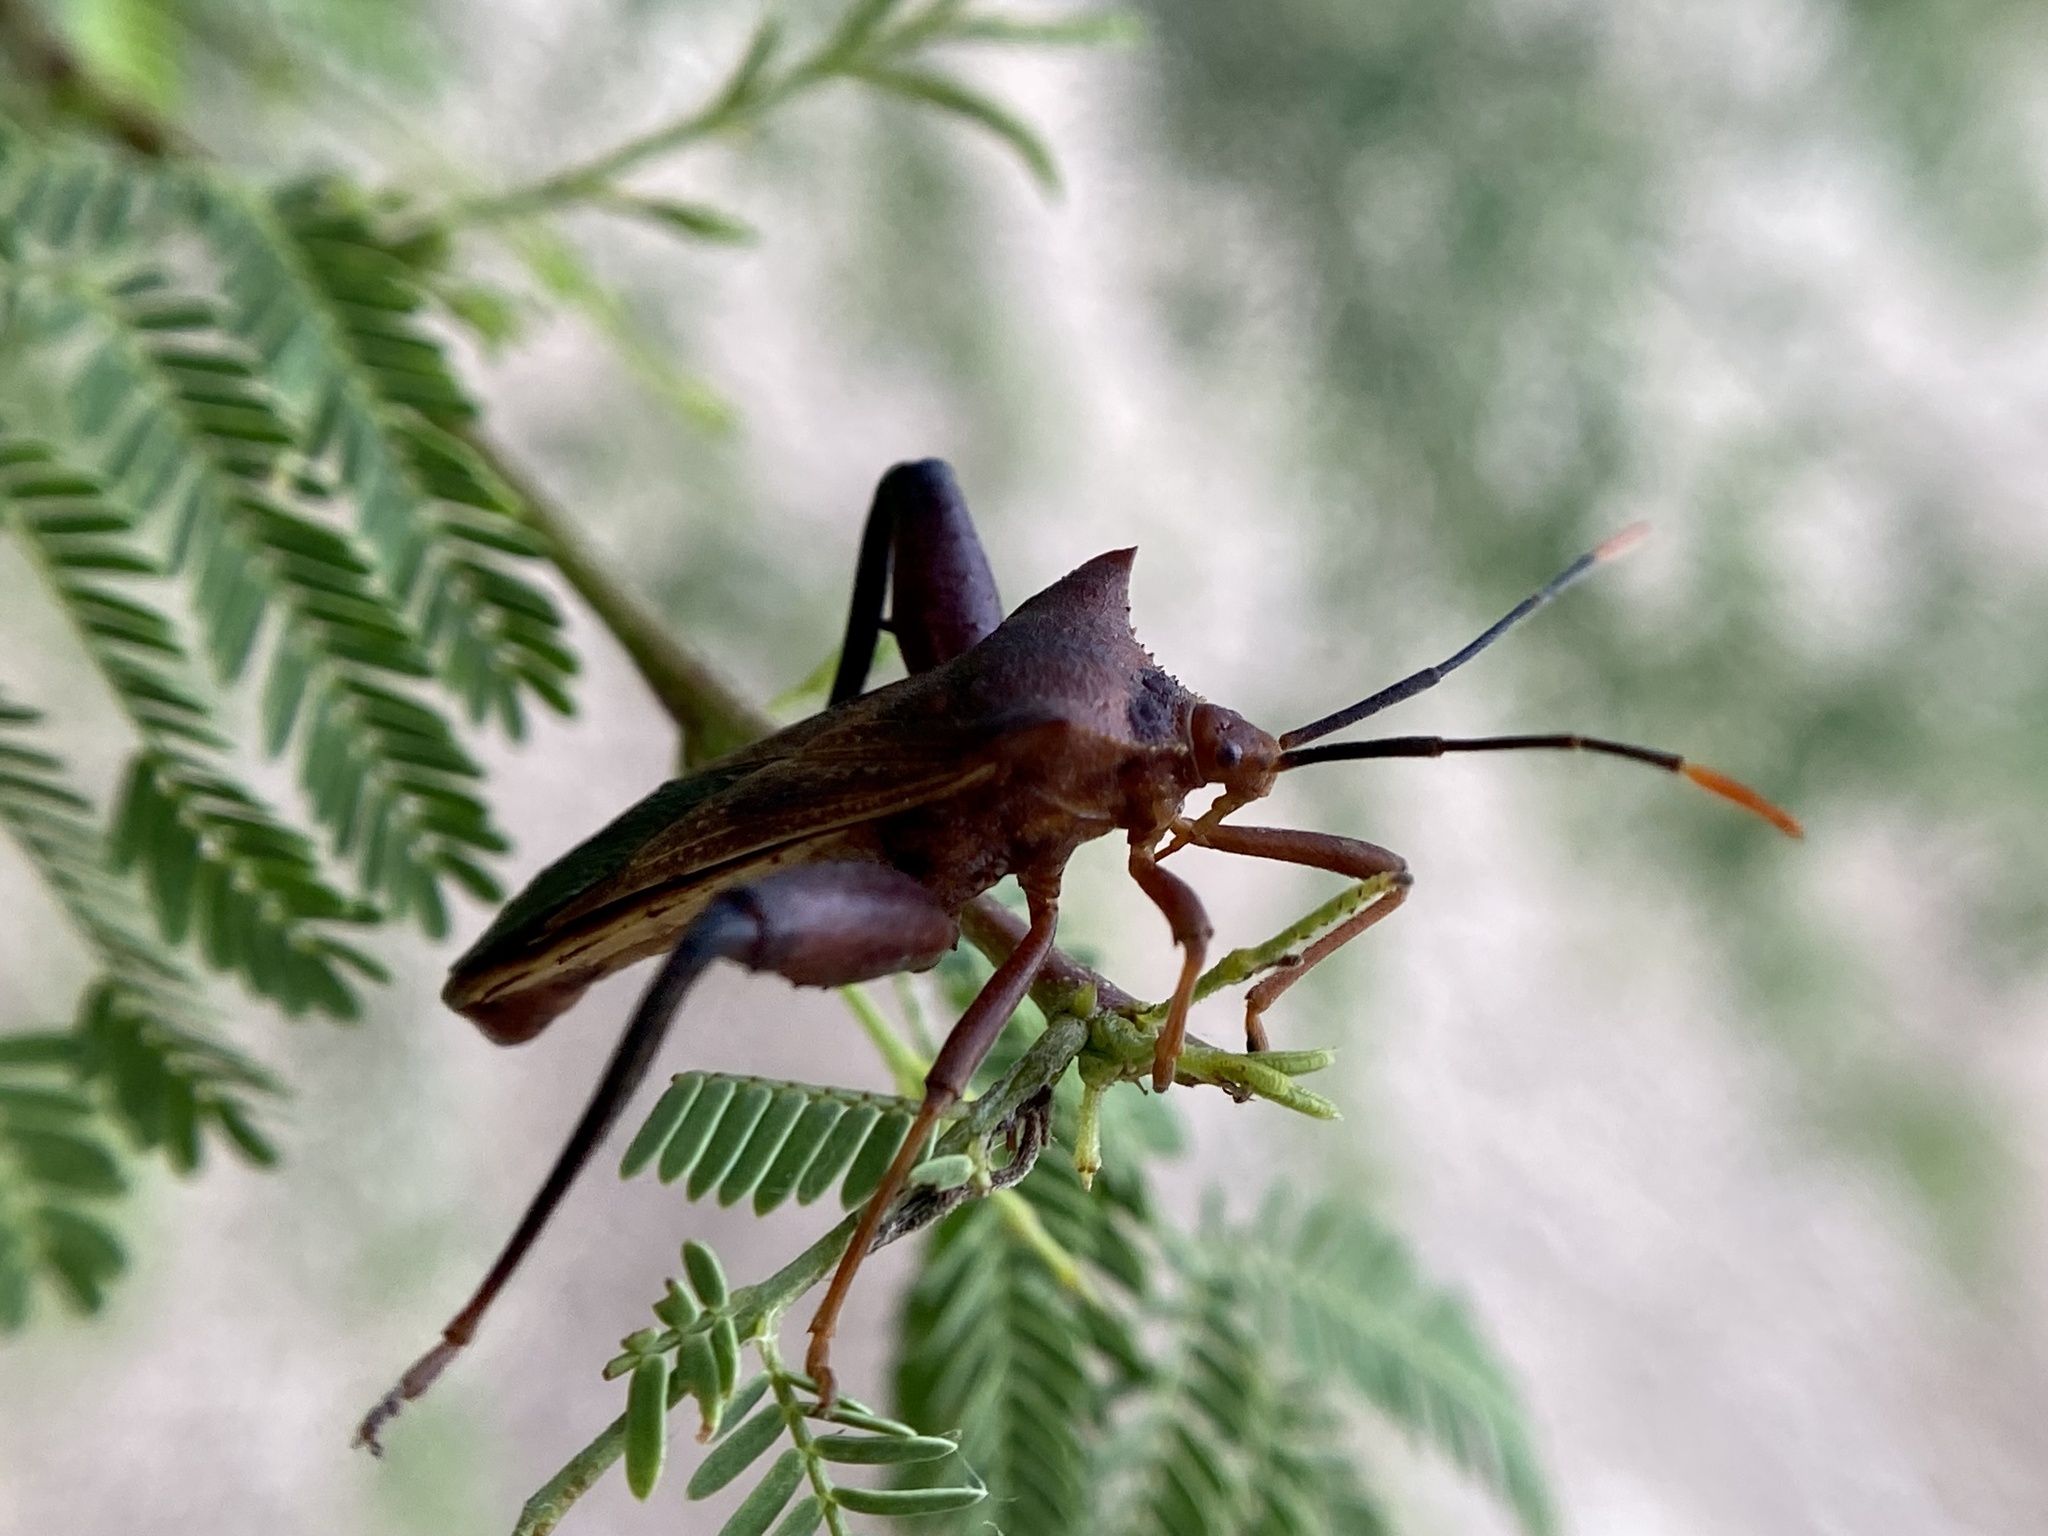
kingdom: Animalia
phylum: Arthropoda
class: Insecta
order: Hemiptera
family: Coreidae
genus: Mozena
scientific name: Mozena lunata
